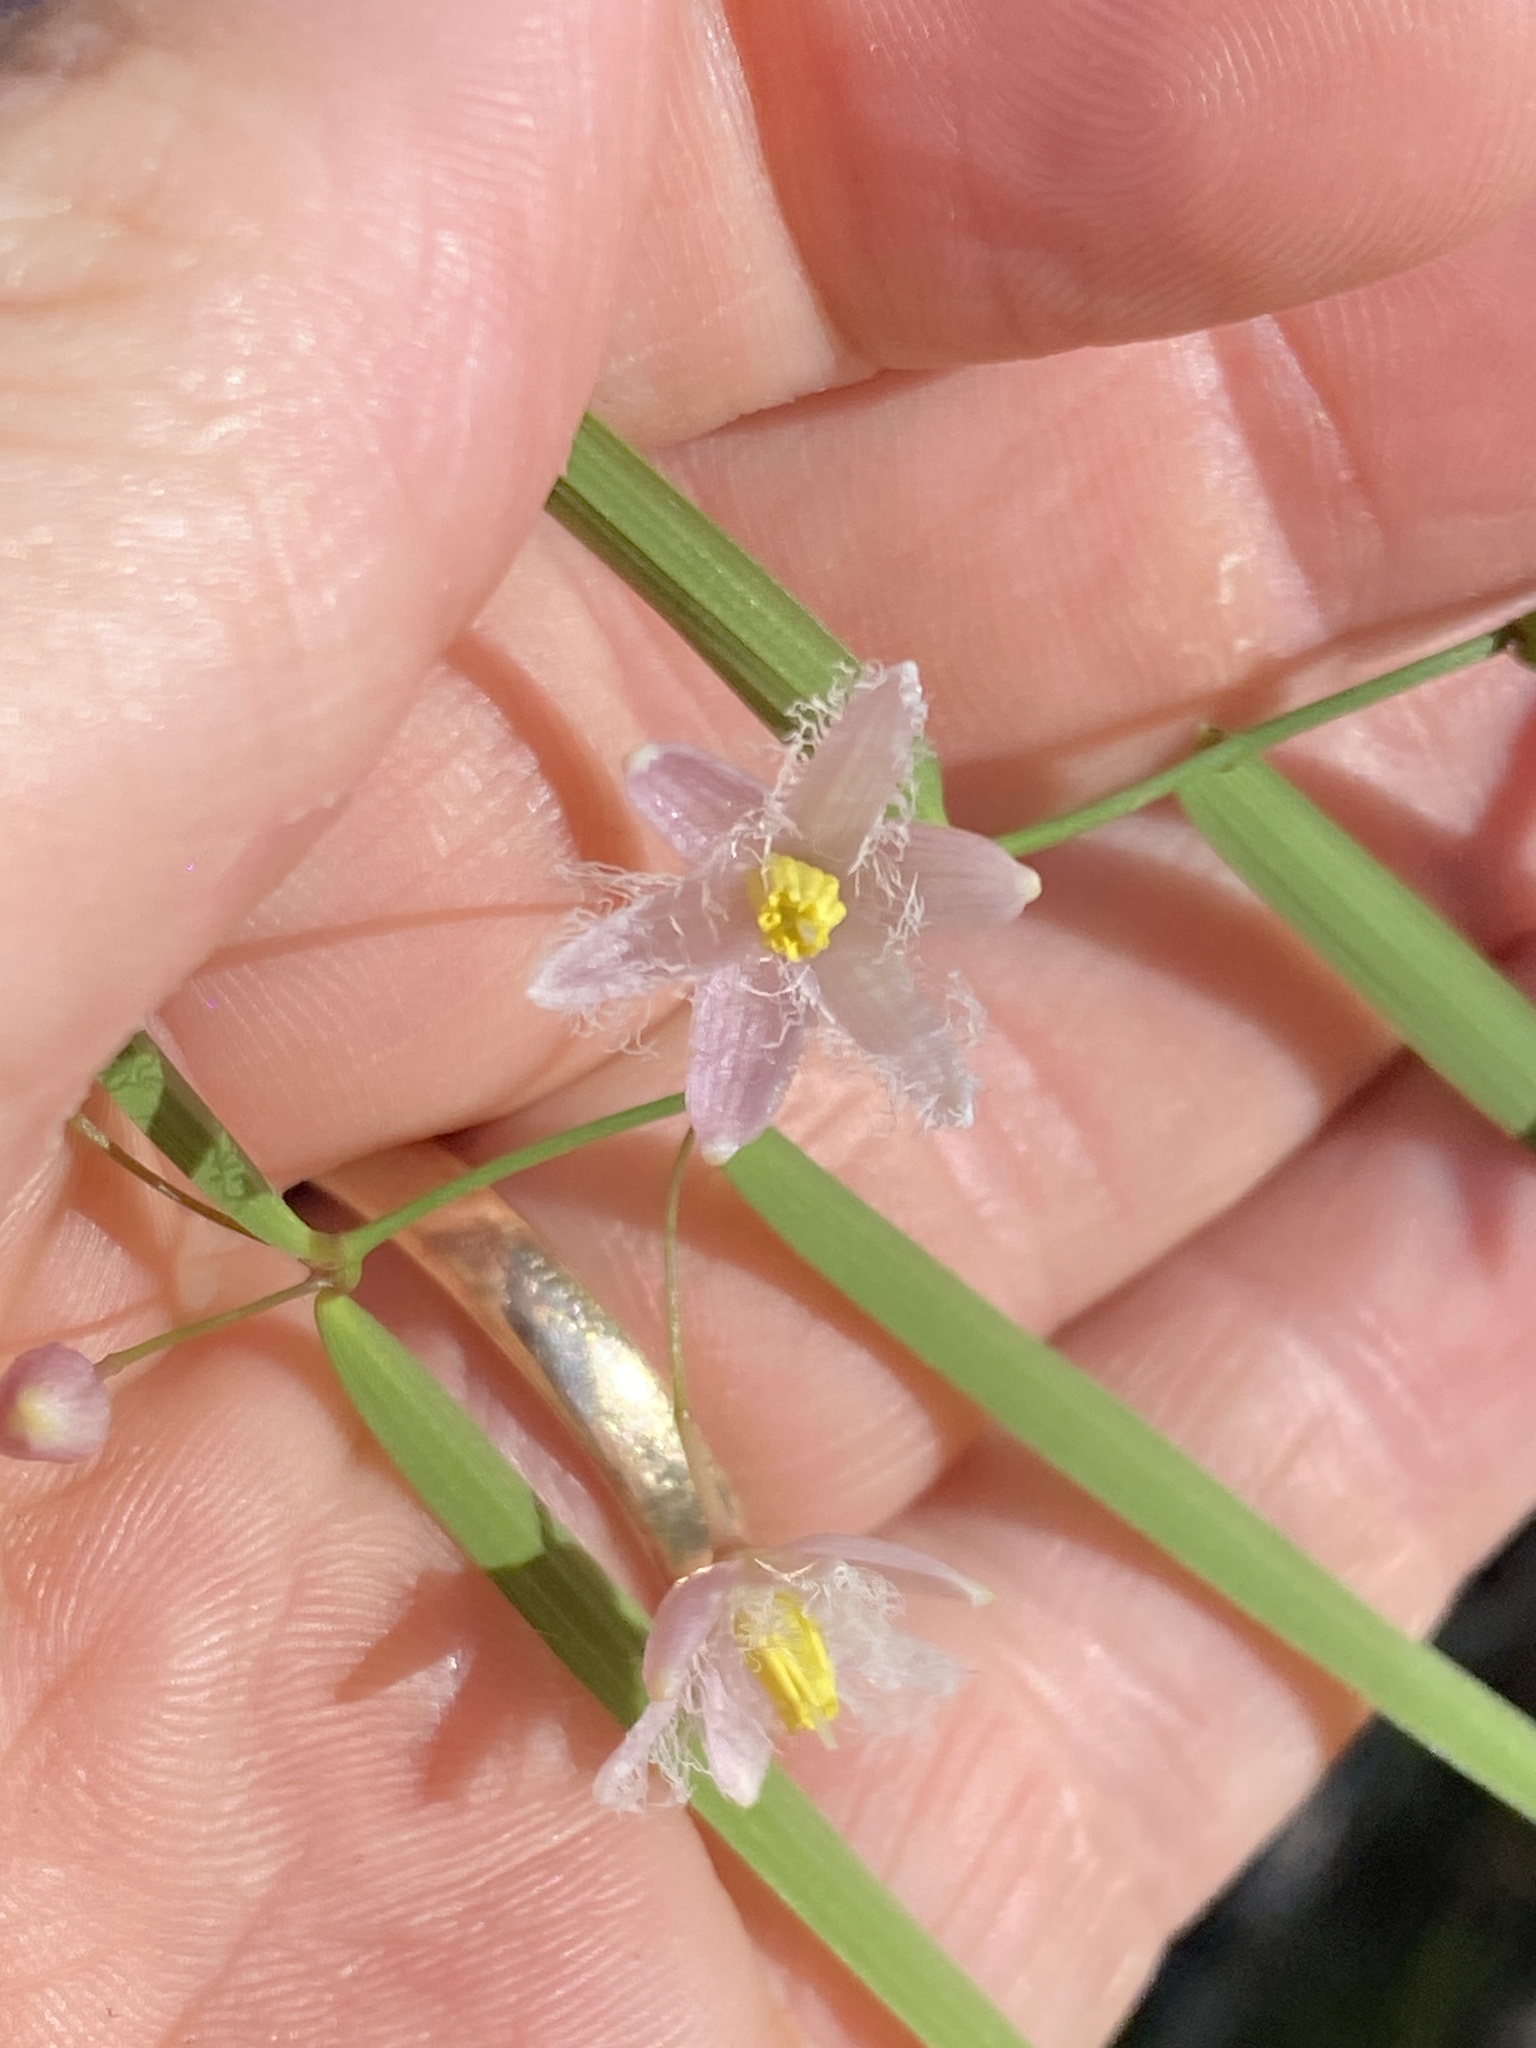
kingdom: Plantae
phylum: Tracheophyta
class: Liliopsida
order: Asparagales
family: Asparagaceae
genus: Eustrephus
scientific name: Eustrephus latifolius
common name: Orangevine
